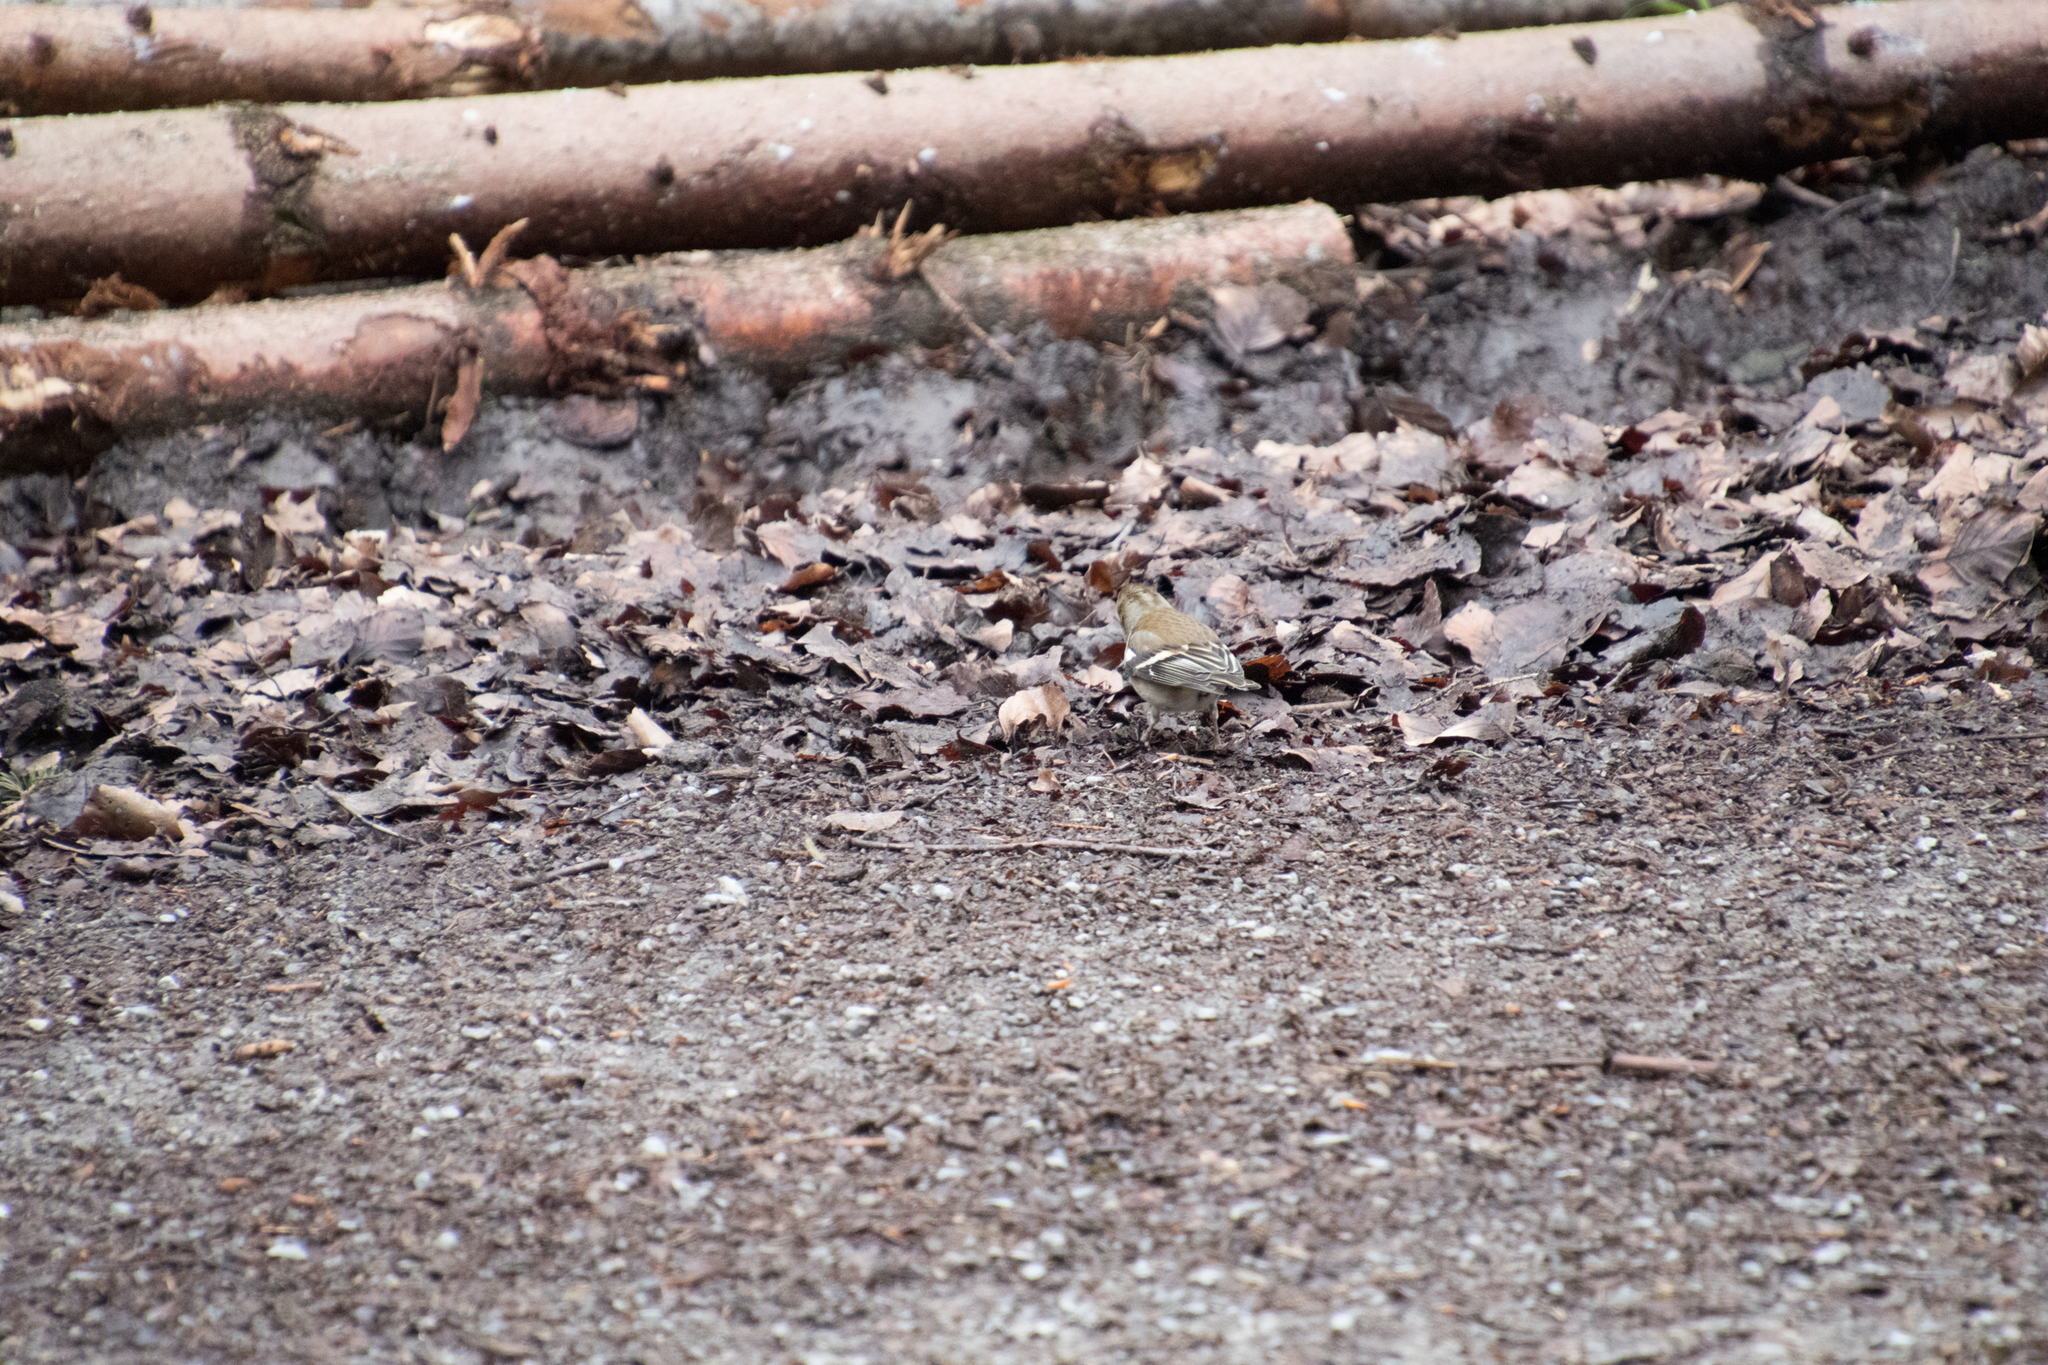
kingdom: Animalia
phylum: Chordata
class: Aves
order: Passeriformes
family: Fringillidae
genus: Fringilla
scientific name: Fringilla coelebs
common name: Common chaffinch
